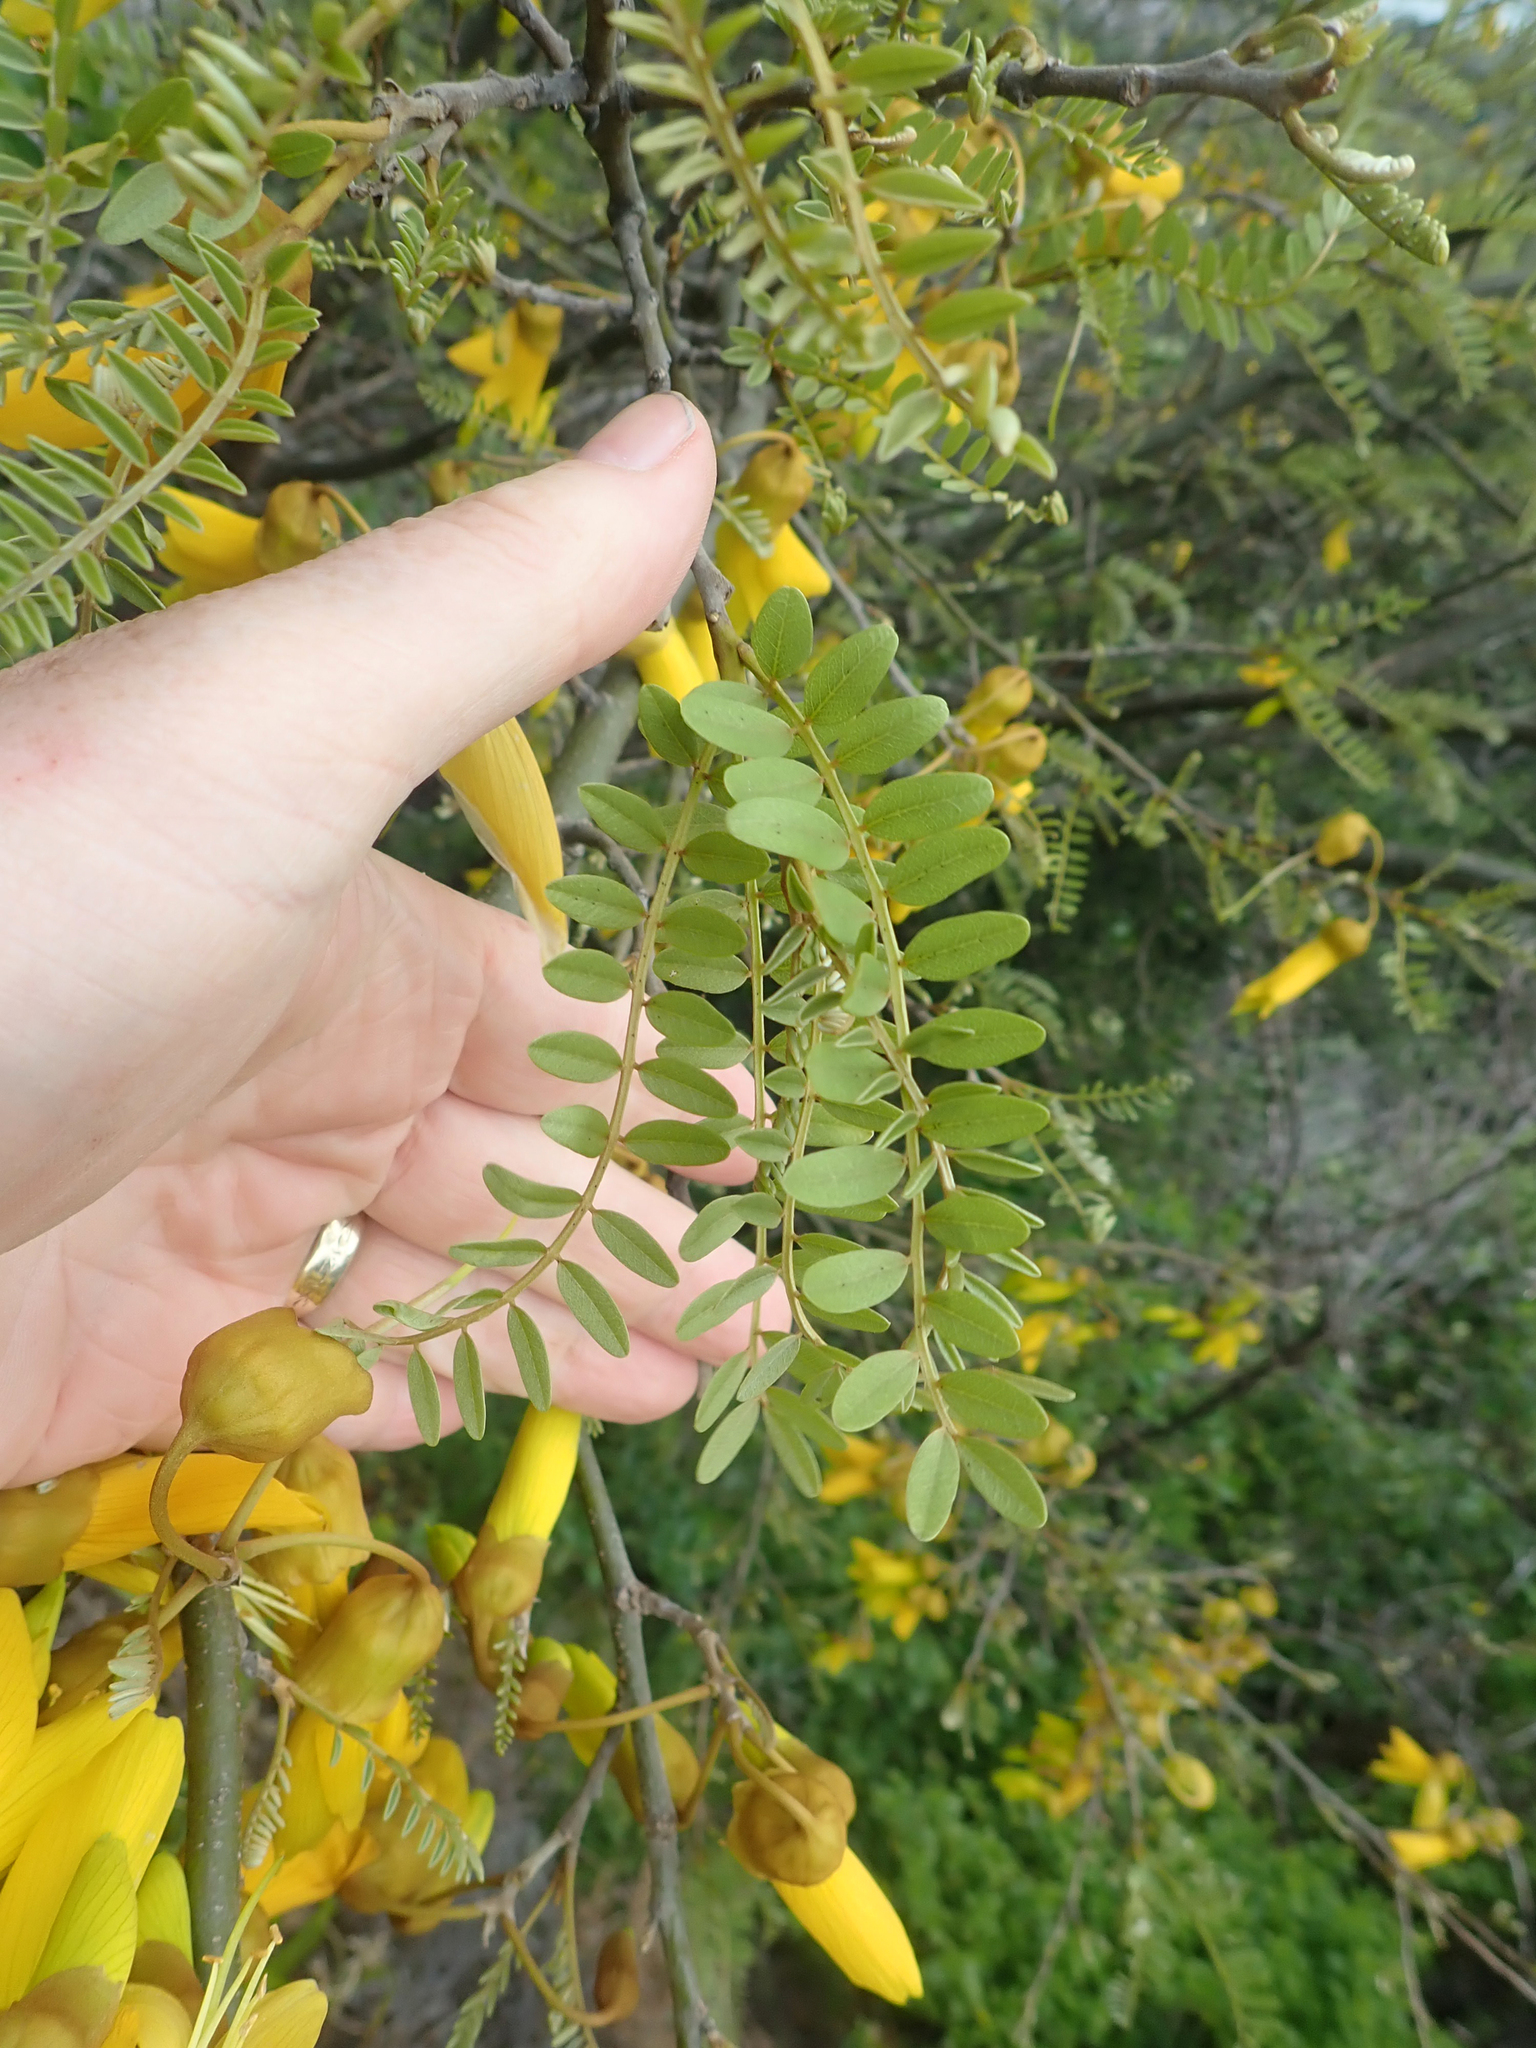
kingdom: Plantae
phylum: Tracheophyta
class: Magnoliopsida
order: Fabales
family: Fabaceae
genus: Sophora
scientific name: Sophora tetraptera
